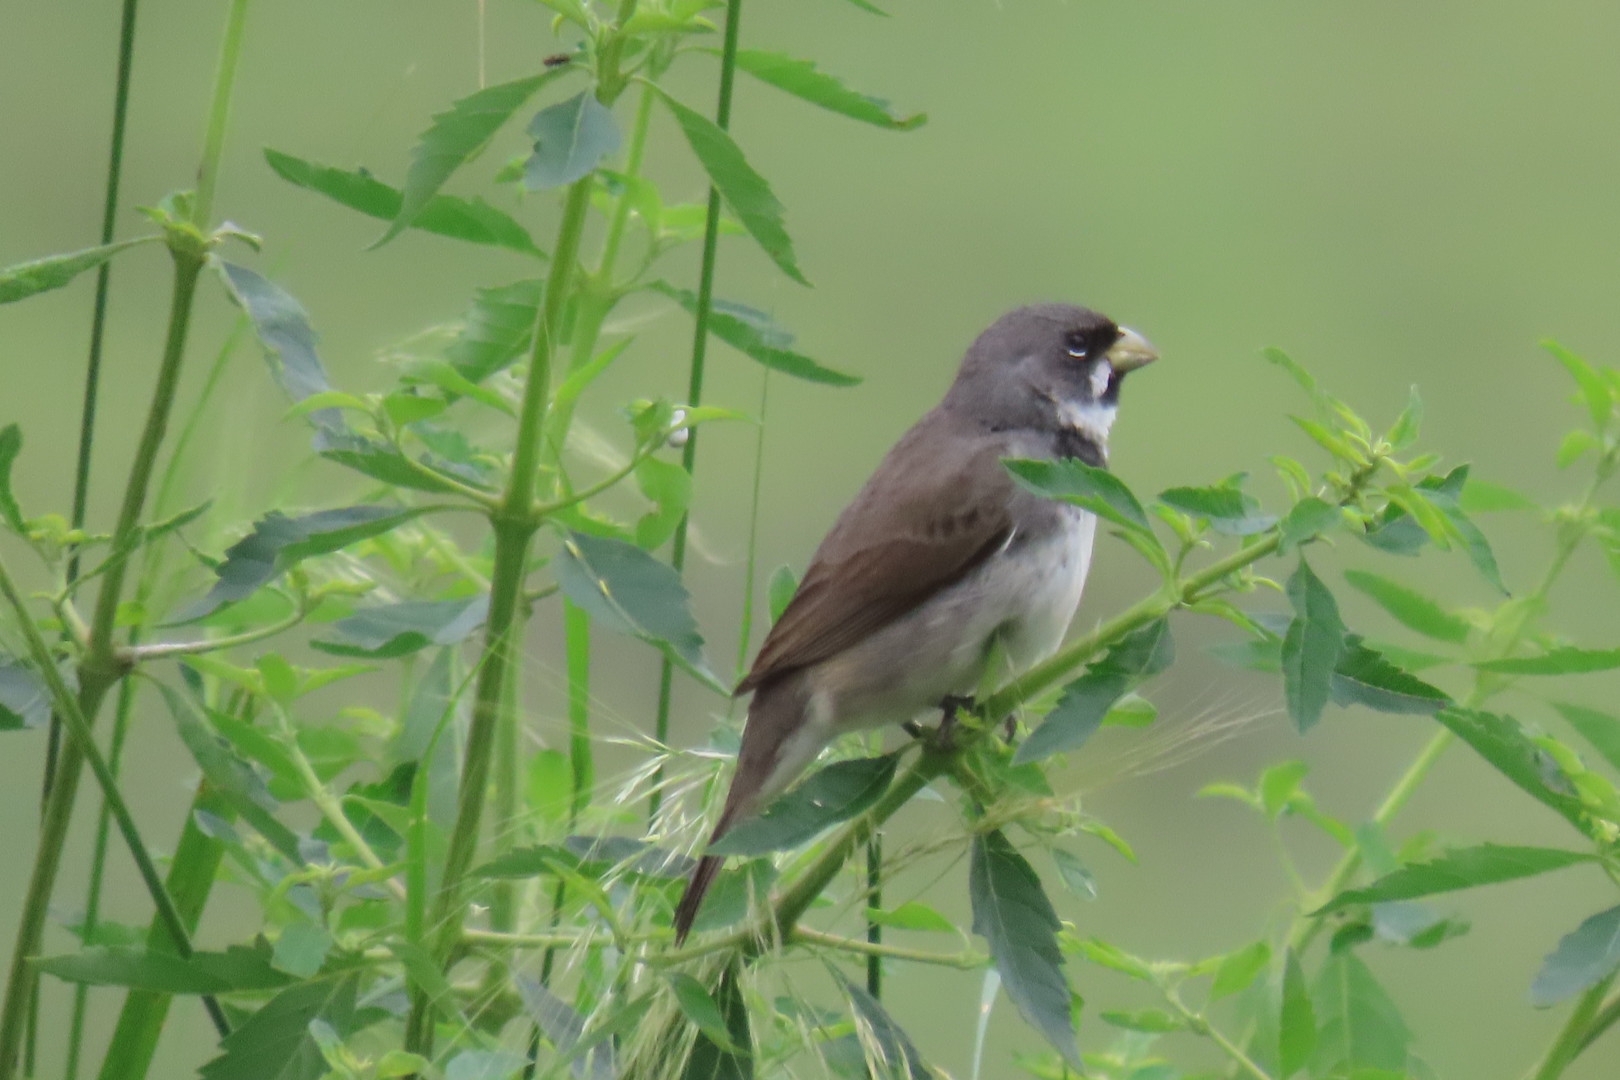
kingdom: Animalia
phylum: Chordata
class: Aves
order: Passeriformes
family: Thraupidae
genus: Sporophila
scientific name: Sporophila caerulescens
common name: Double-collared seedeater
